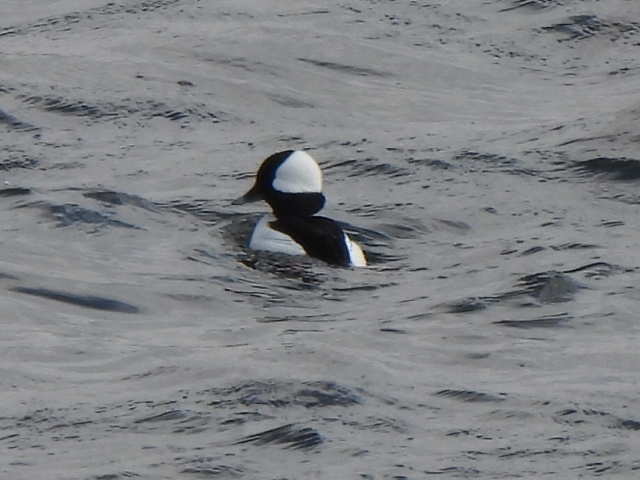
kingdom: Animalia
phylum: Chordata
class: Aves
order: Anseriformes
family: Anatidae
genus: Bucephala
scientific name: Bucephala albeola
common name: Bufflehead
